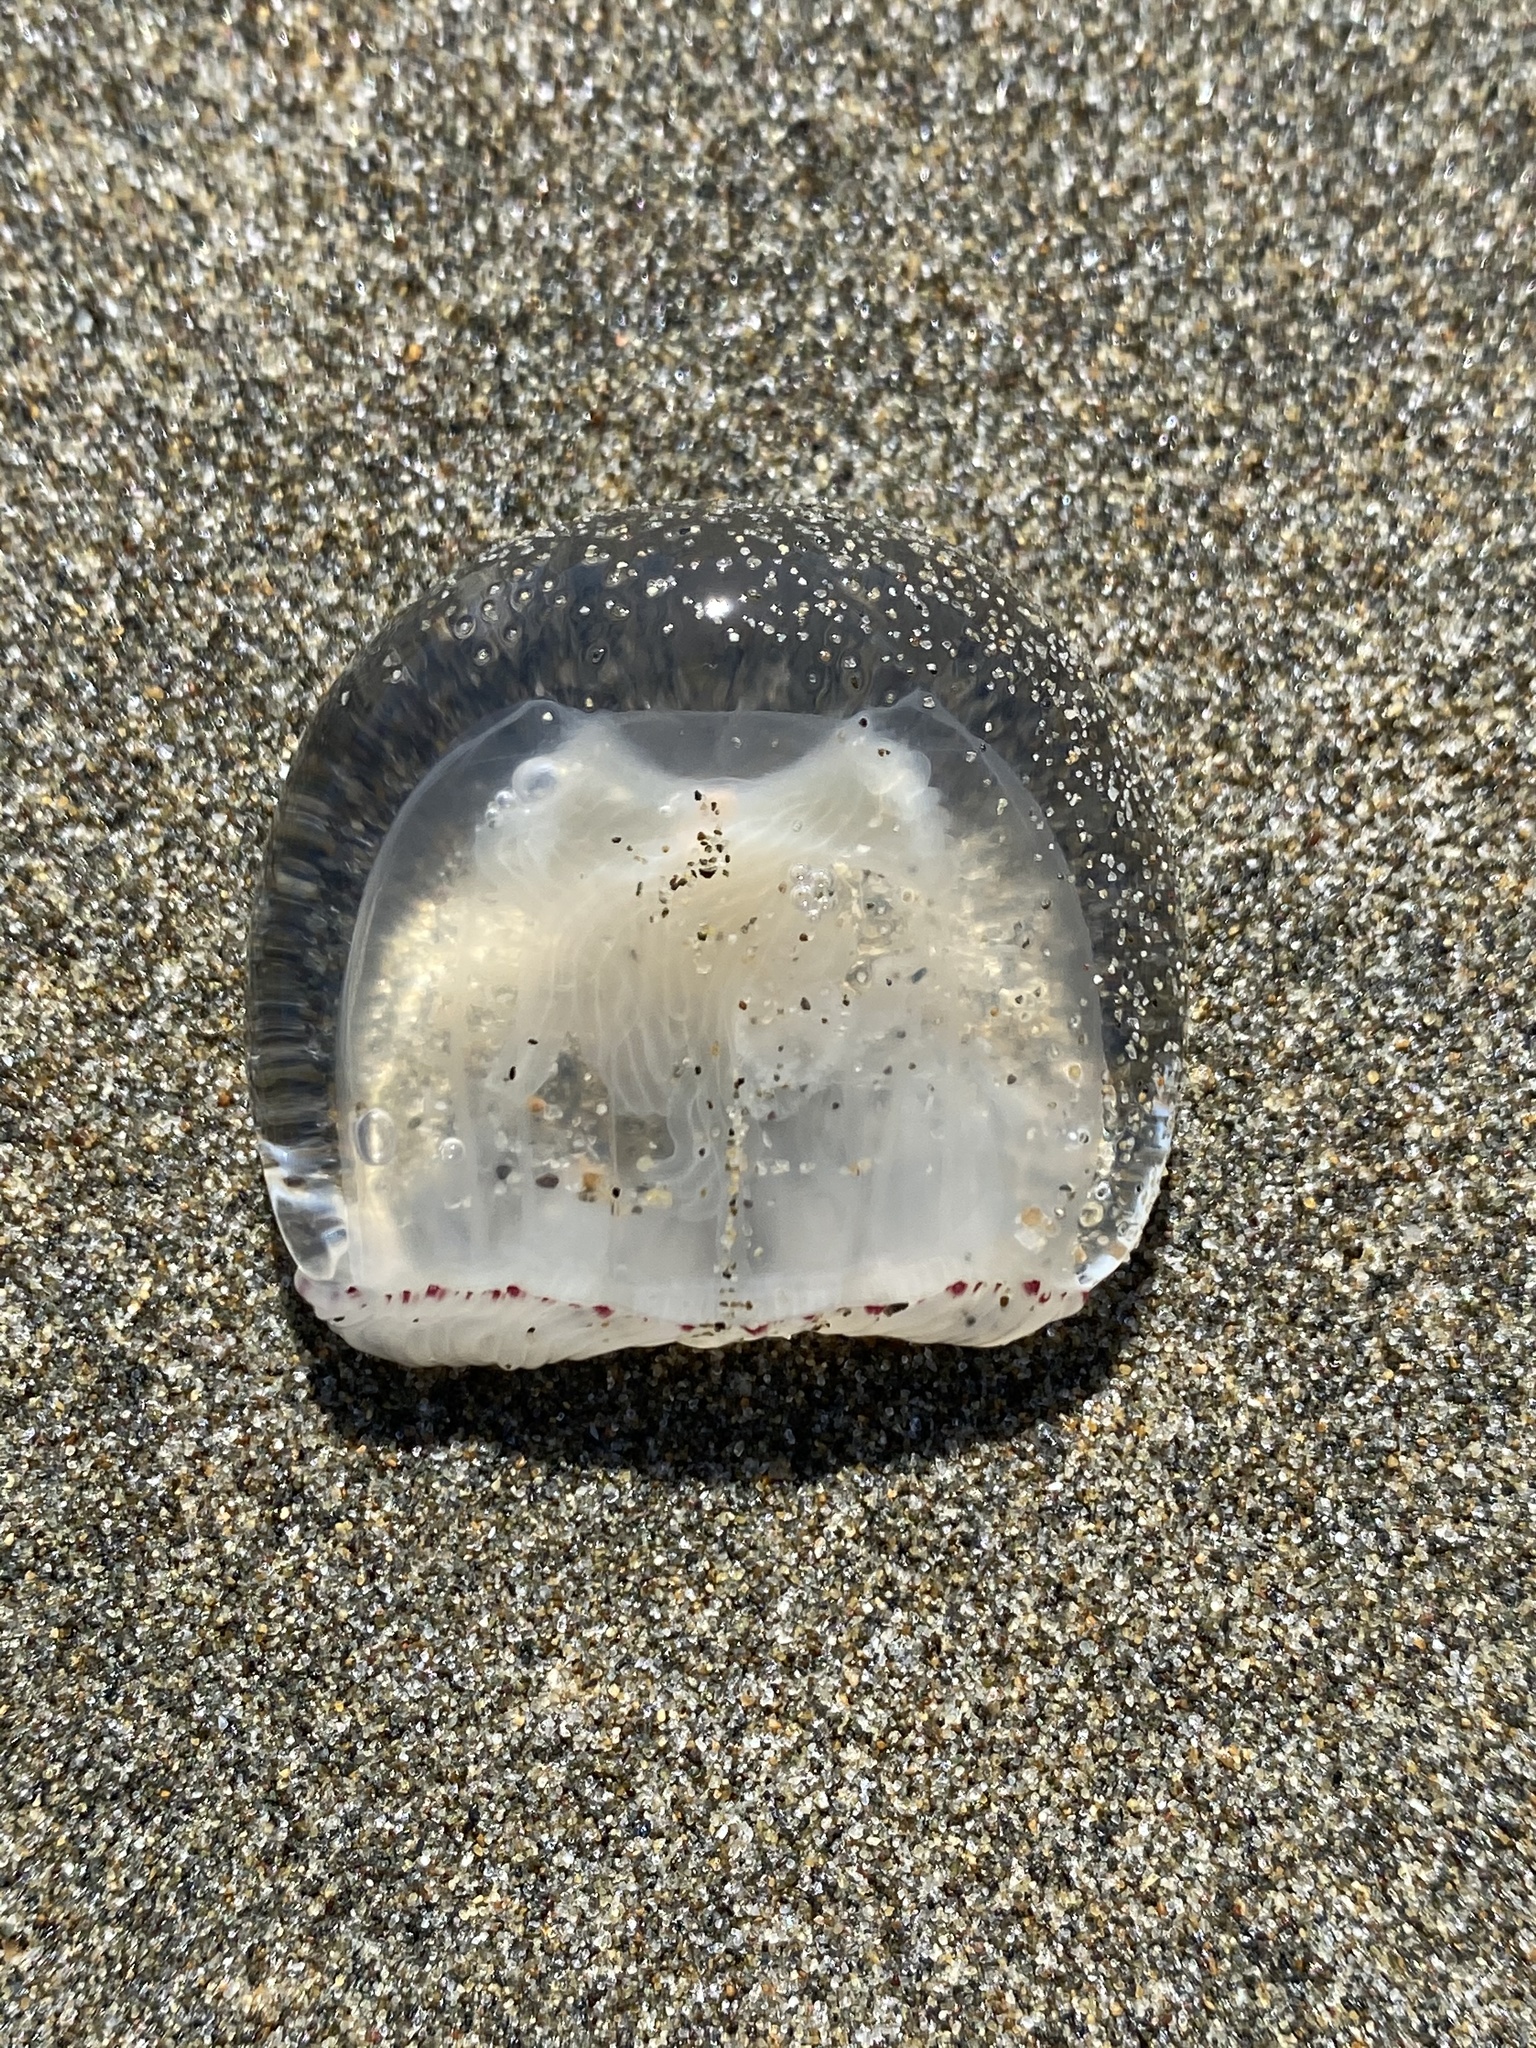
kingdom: Animalia
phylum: Cnidaria
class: Hydrozoa
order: Anthoathecata
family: Corynidae
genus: Polyorchis
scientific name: Polyorchis penicillatus
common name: Penicillate jellyfish
